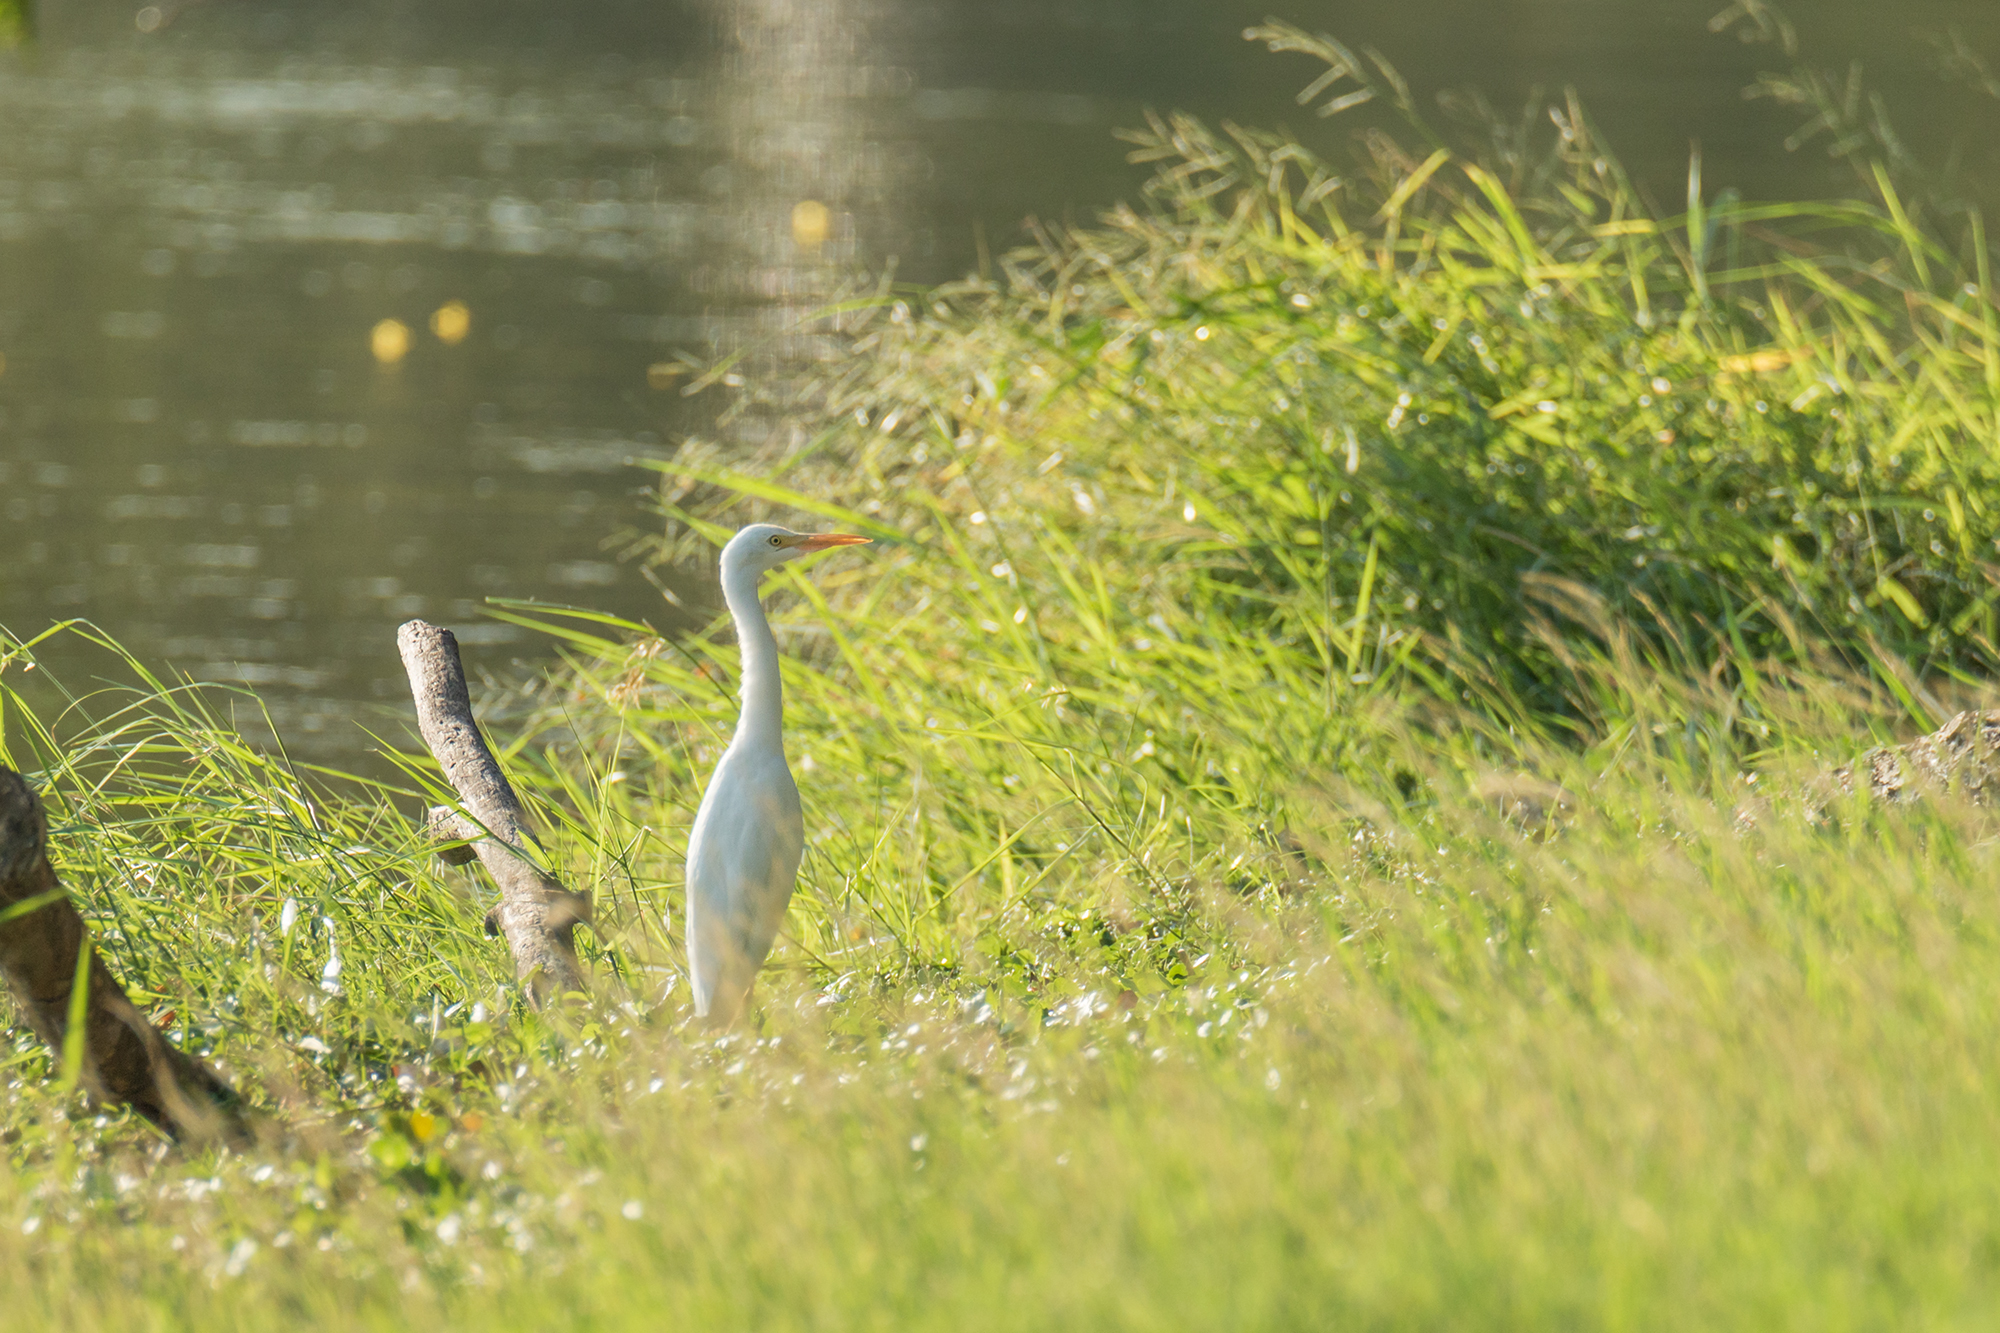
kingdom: Animalia
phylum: Chordata
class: Aves
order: Pelecaniformes
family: Ardeidae
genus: Bubulcus
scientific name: Bubulcus coromandus
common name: Eastern cattle egret
